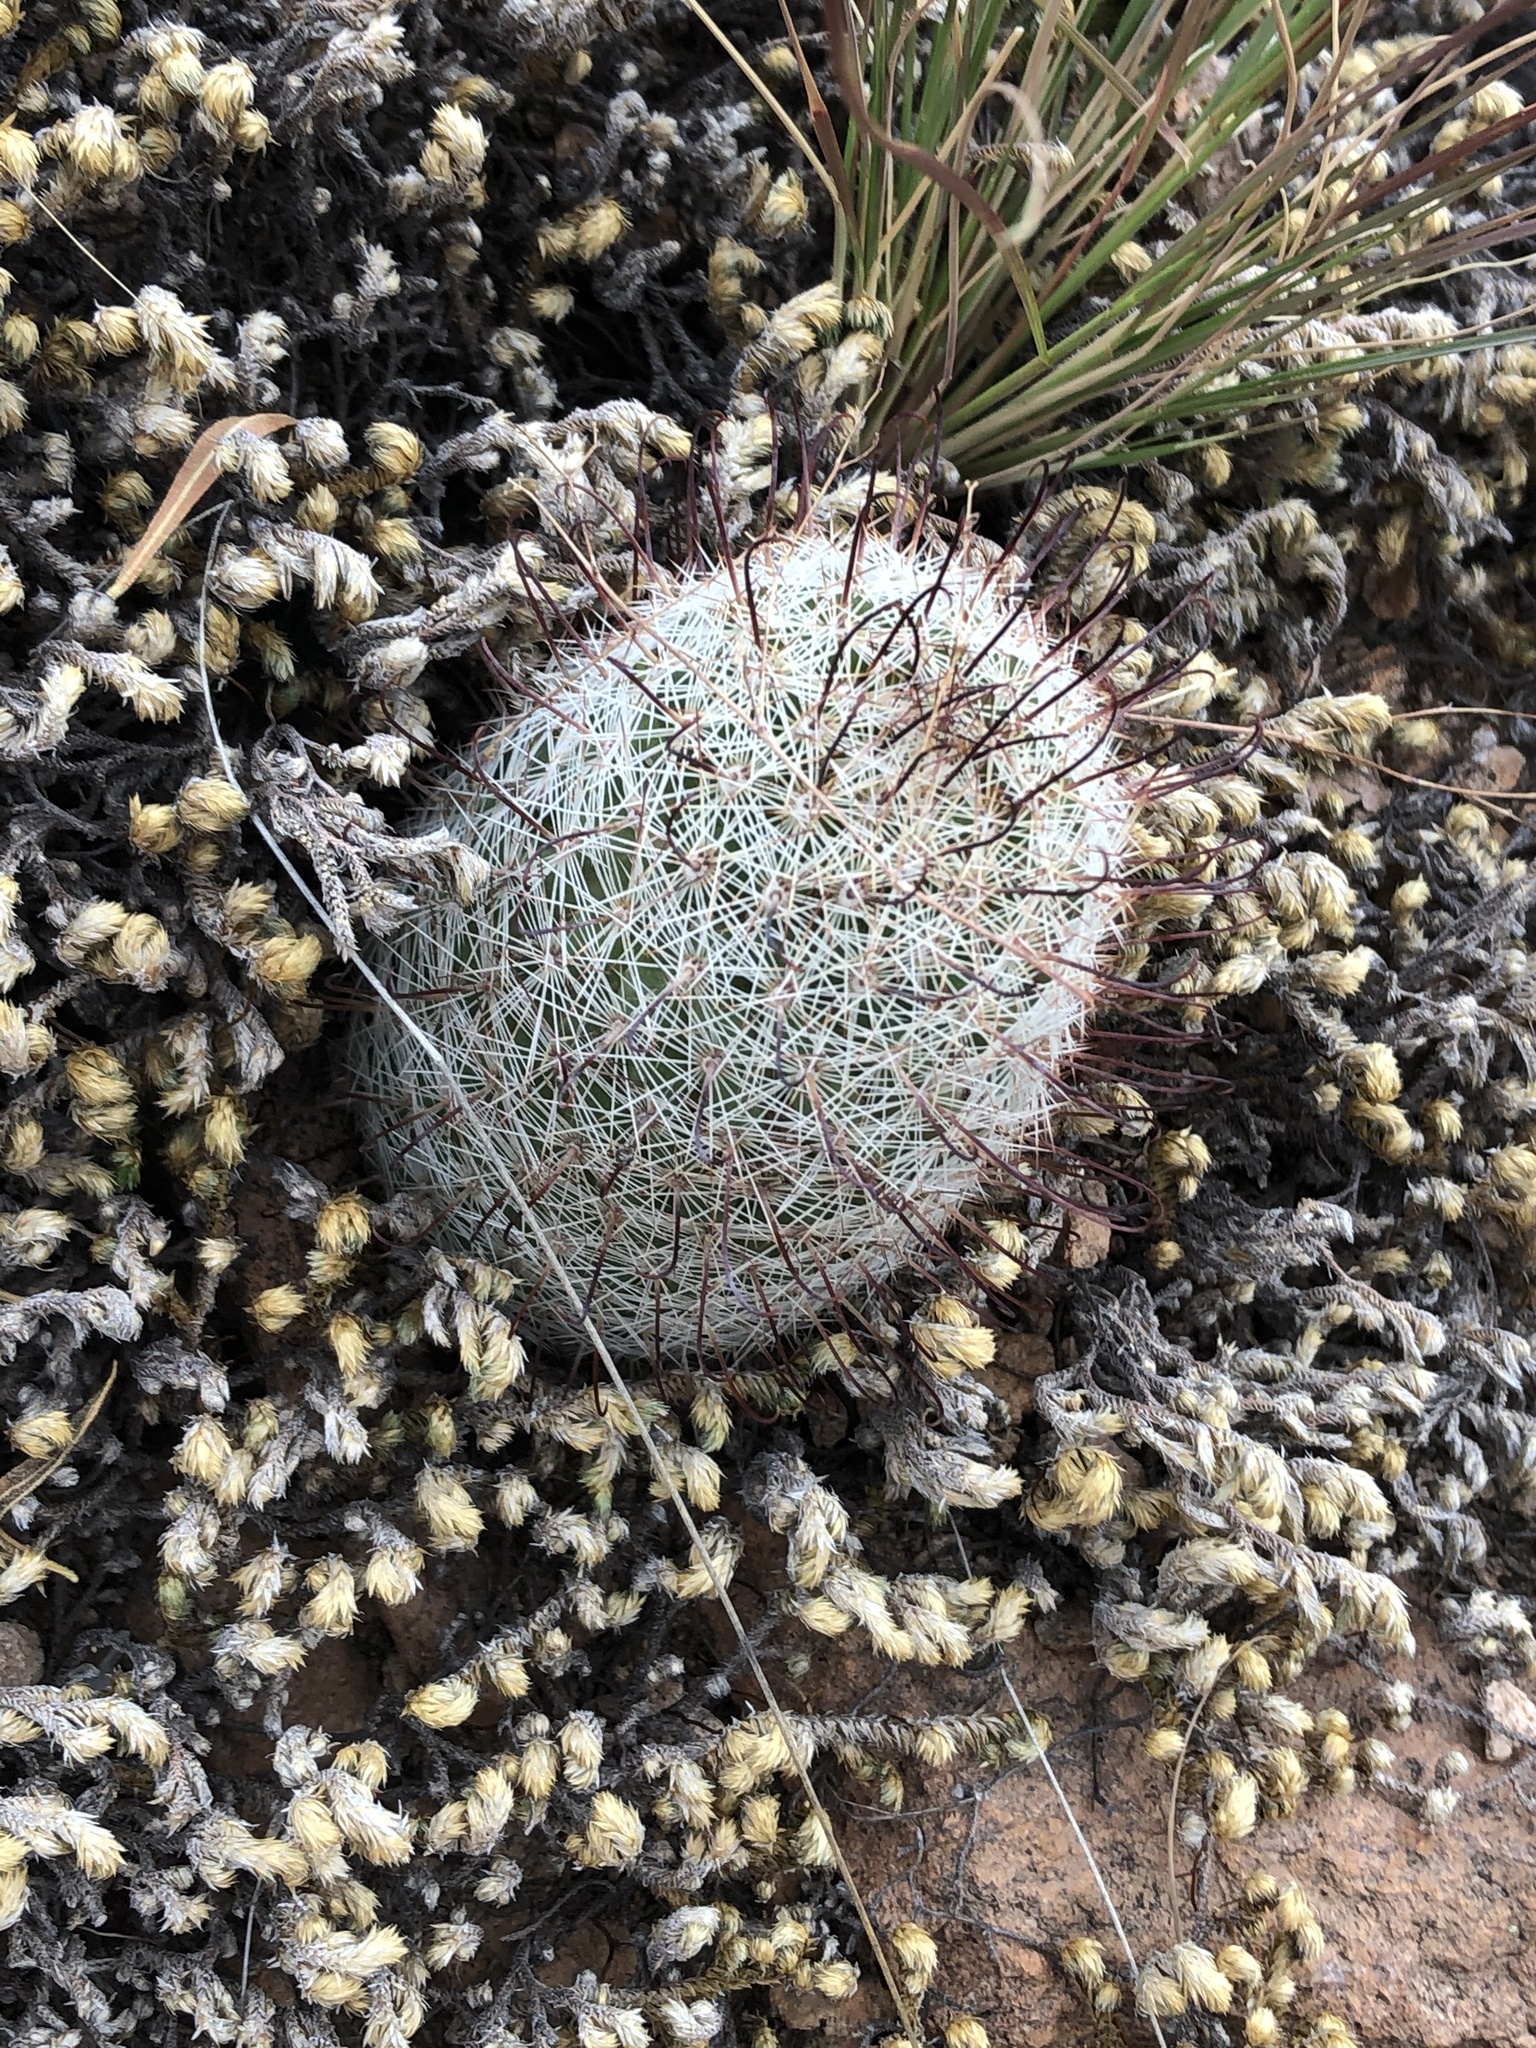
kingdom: Plantae
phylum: Tracheophyta
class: Magnoliopsida
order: Caryophyllales
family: Cactaceae
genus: Cochemiea
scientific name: Cochemiea grahamii
